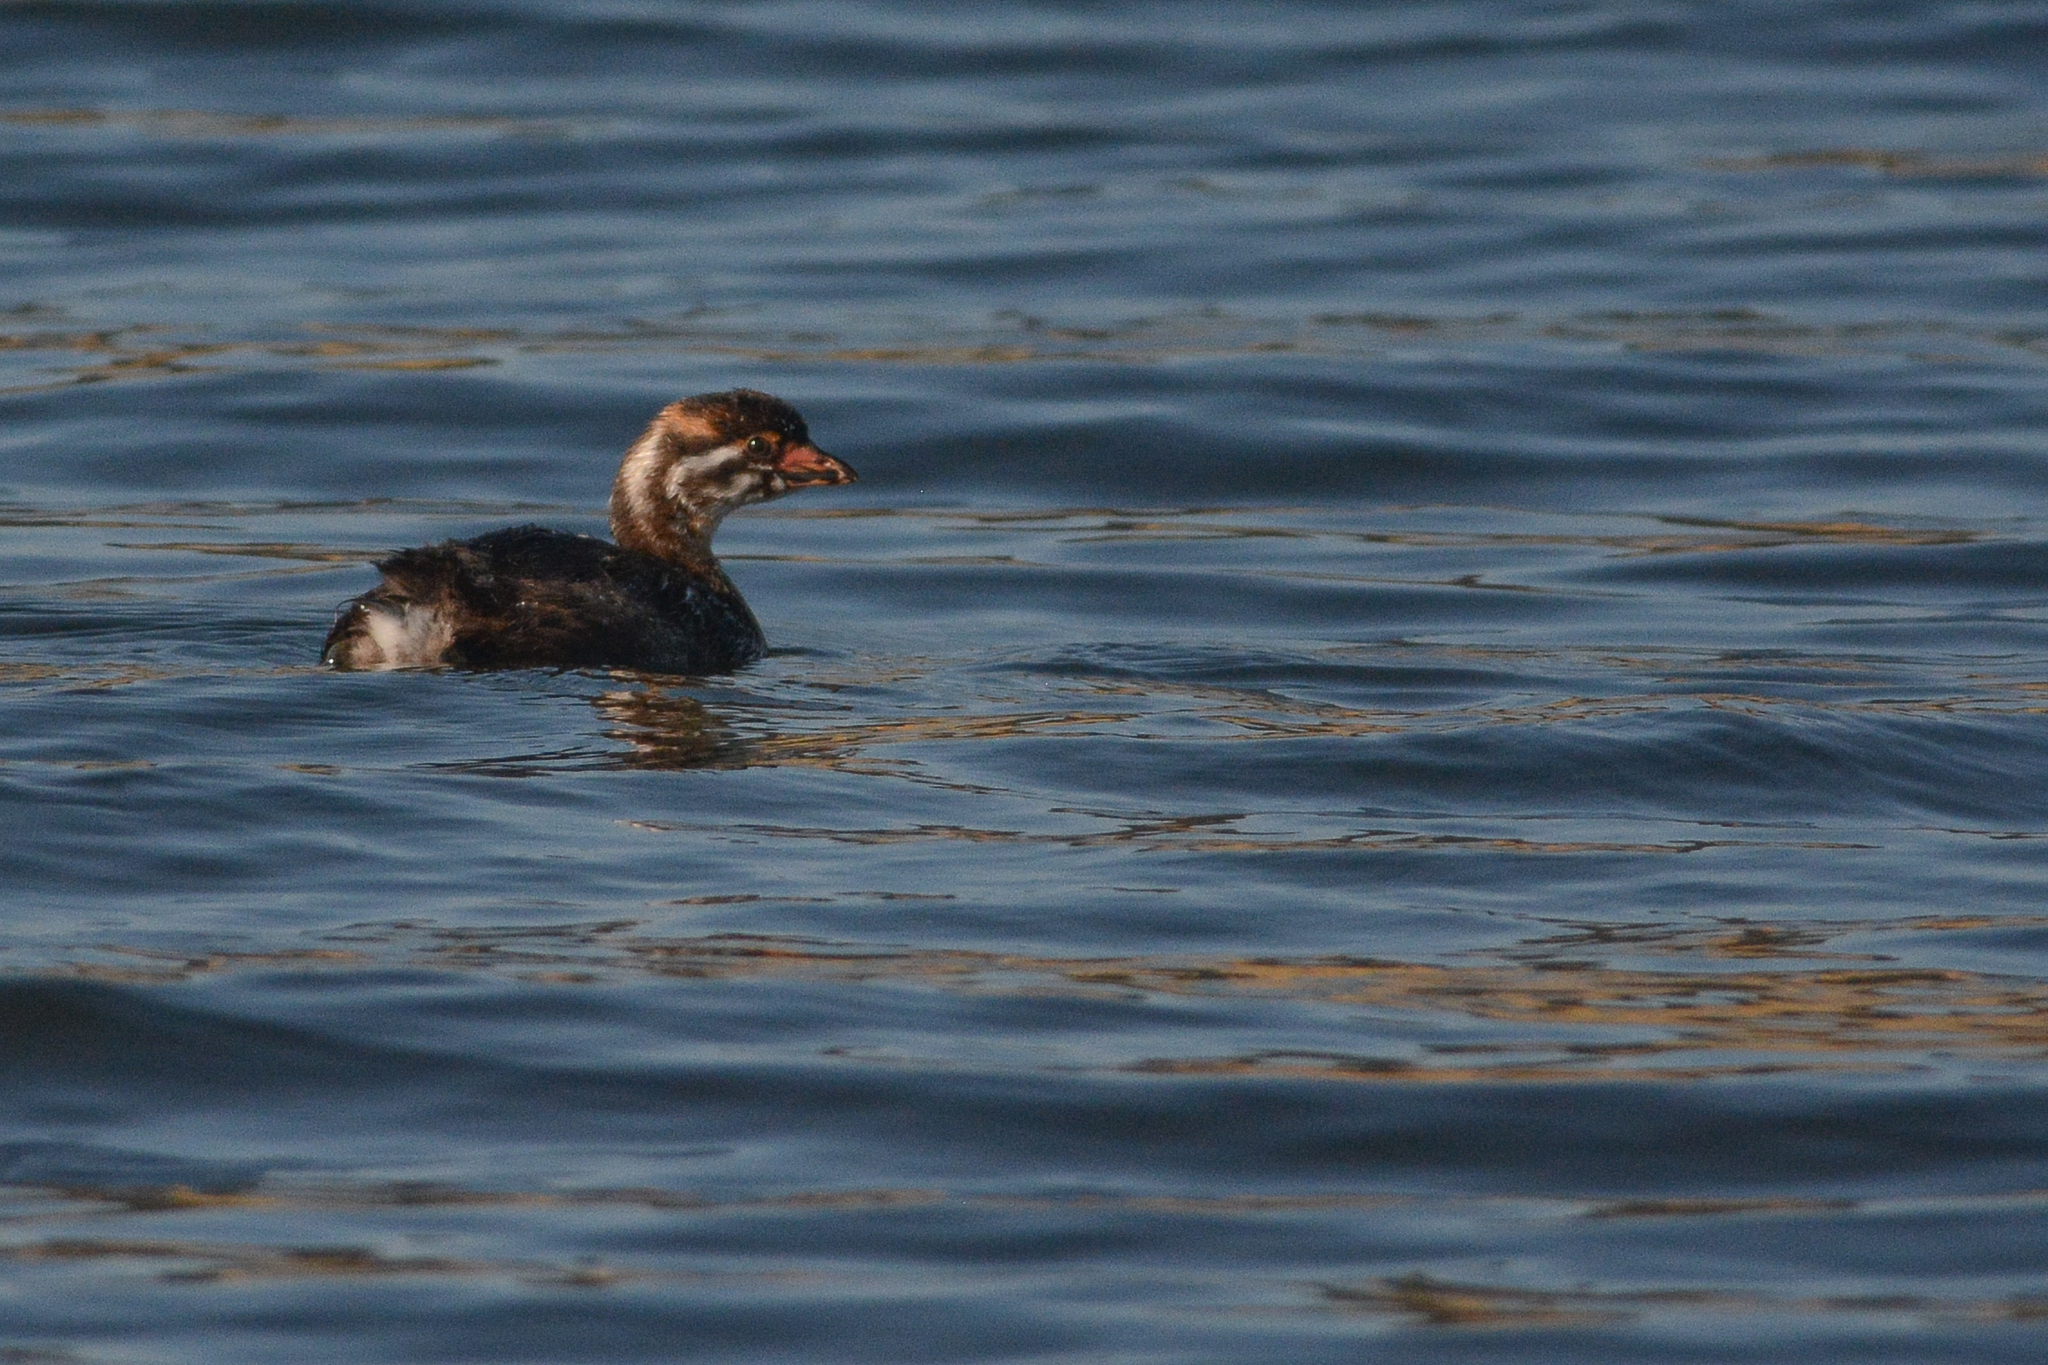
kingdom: Animalia
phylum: Chordata
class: Aves
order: Podicipediformes
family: Podicipedidae
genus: Podilymbus
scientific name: Podilymbus podiceps
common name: Pied-billed grebe
